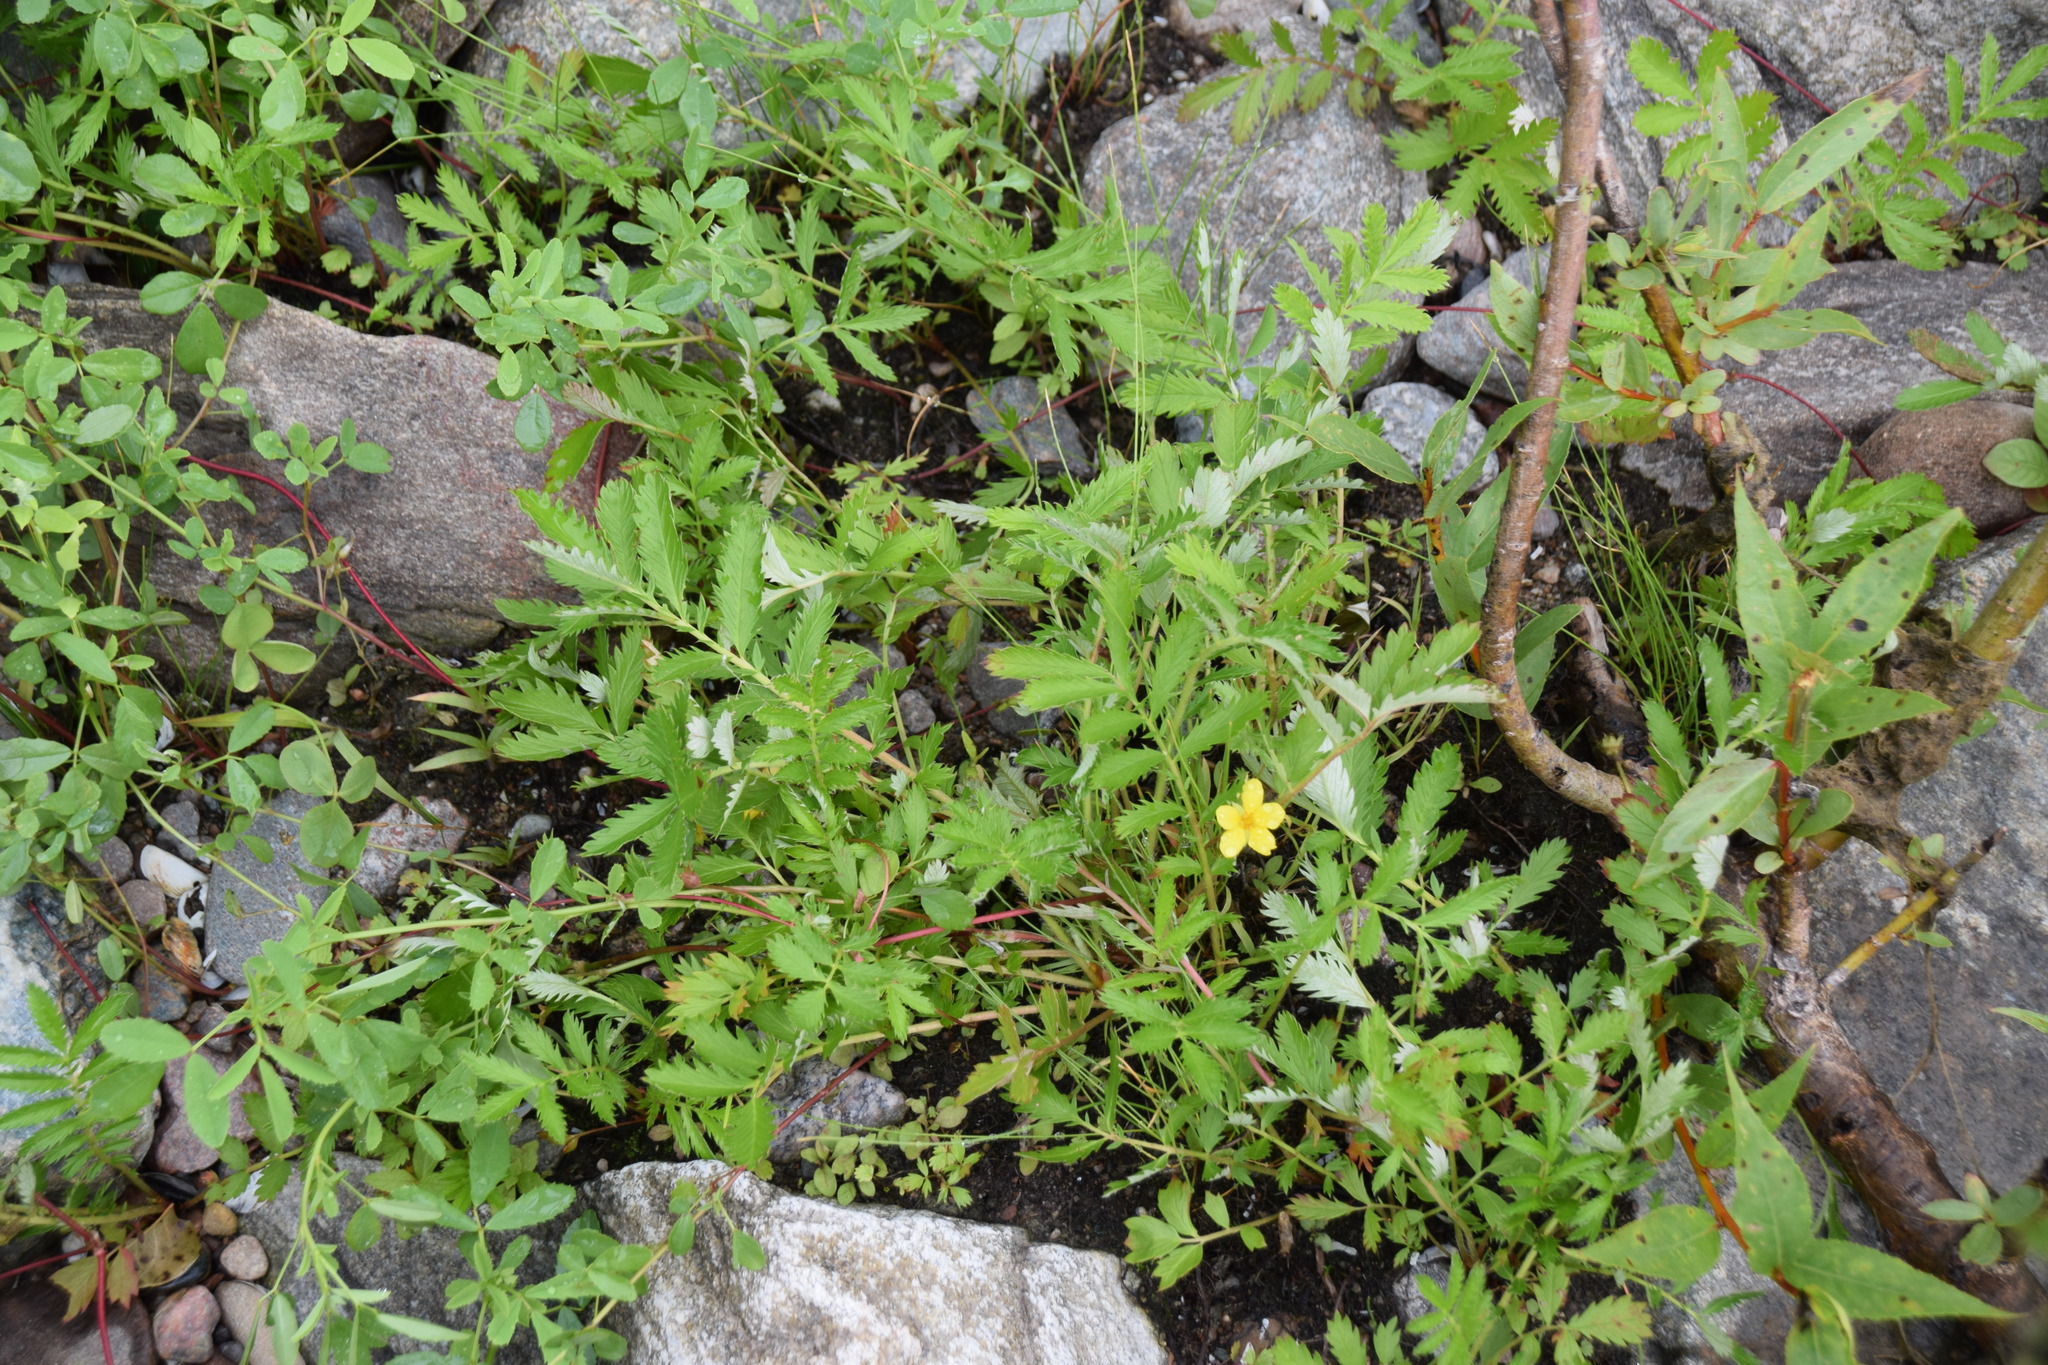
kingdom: Plantae
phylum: Tracheophyta
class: Magnoliopsida
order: Rosales
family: Rosaceae
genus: Argentina
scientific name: Argentina anserina
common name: Common silverweed
